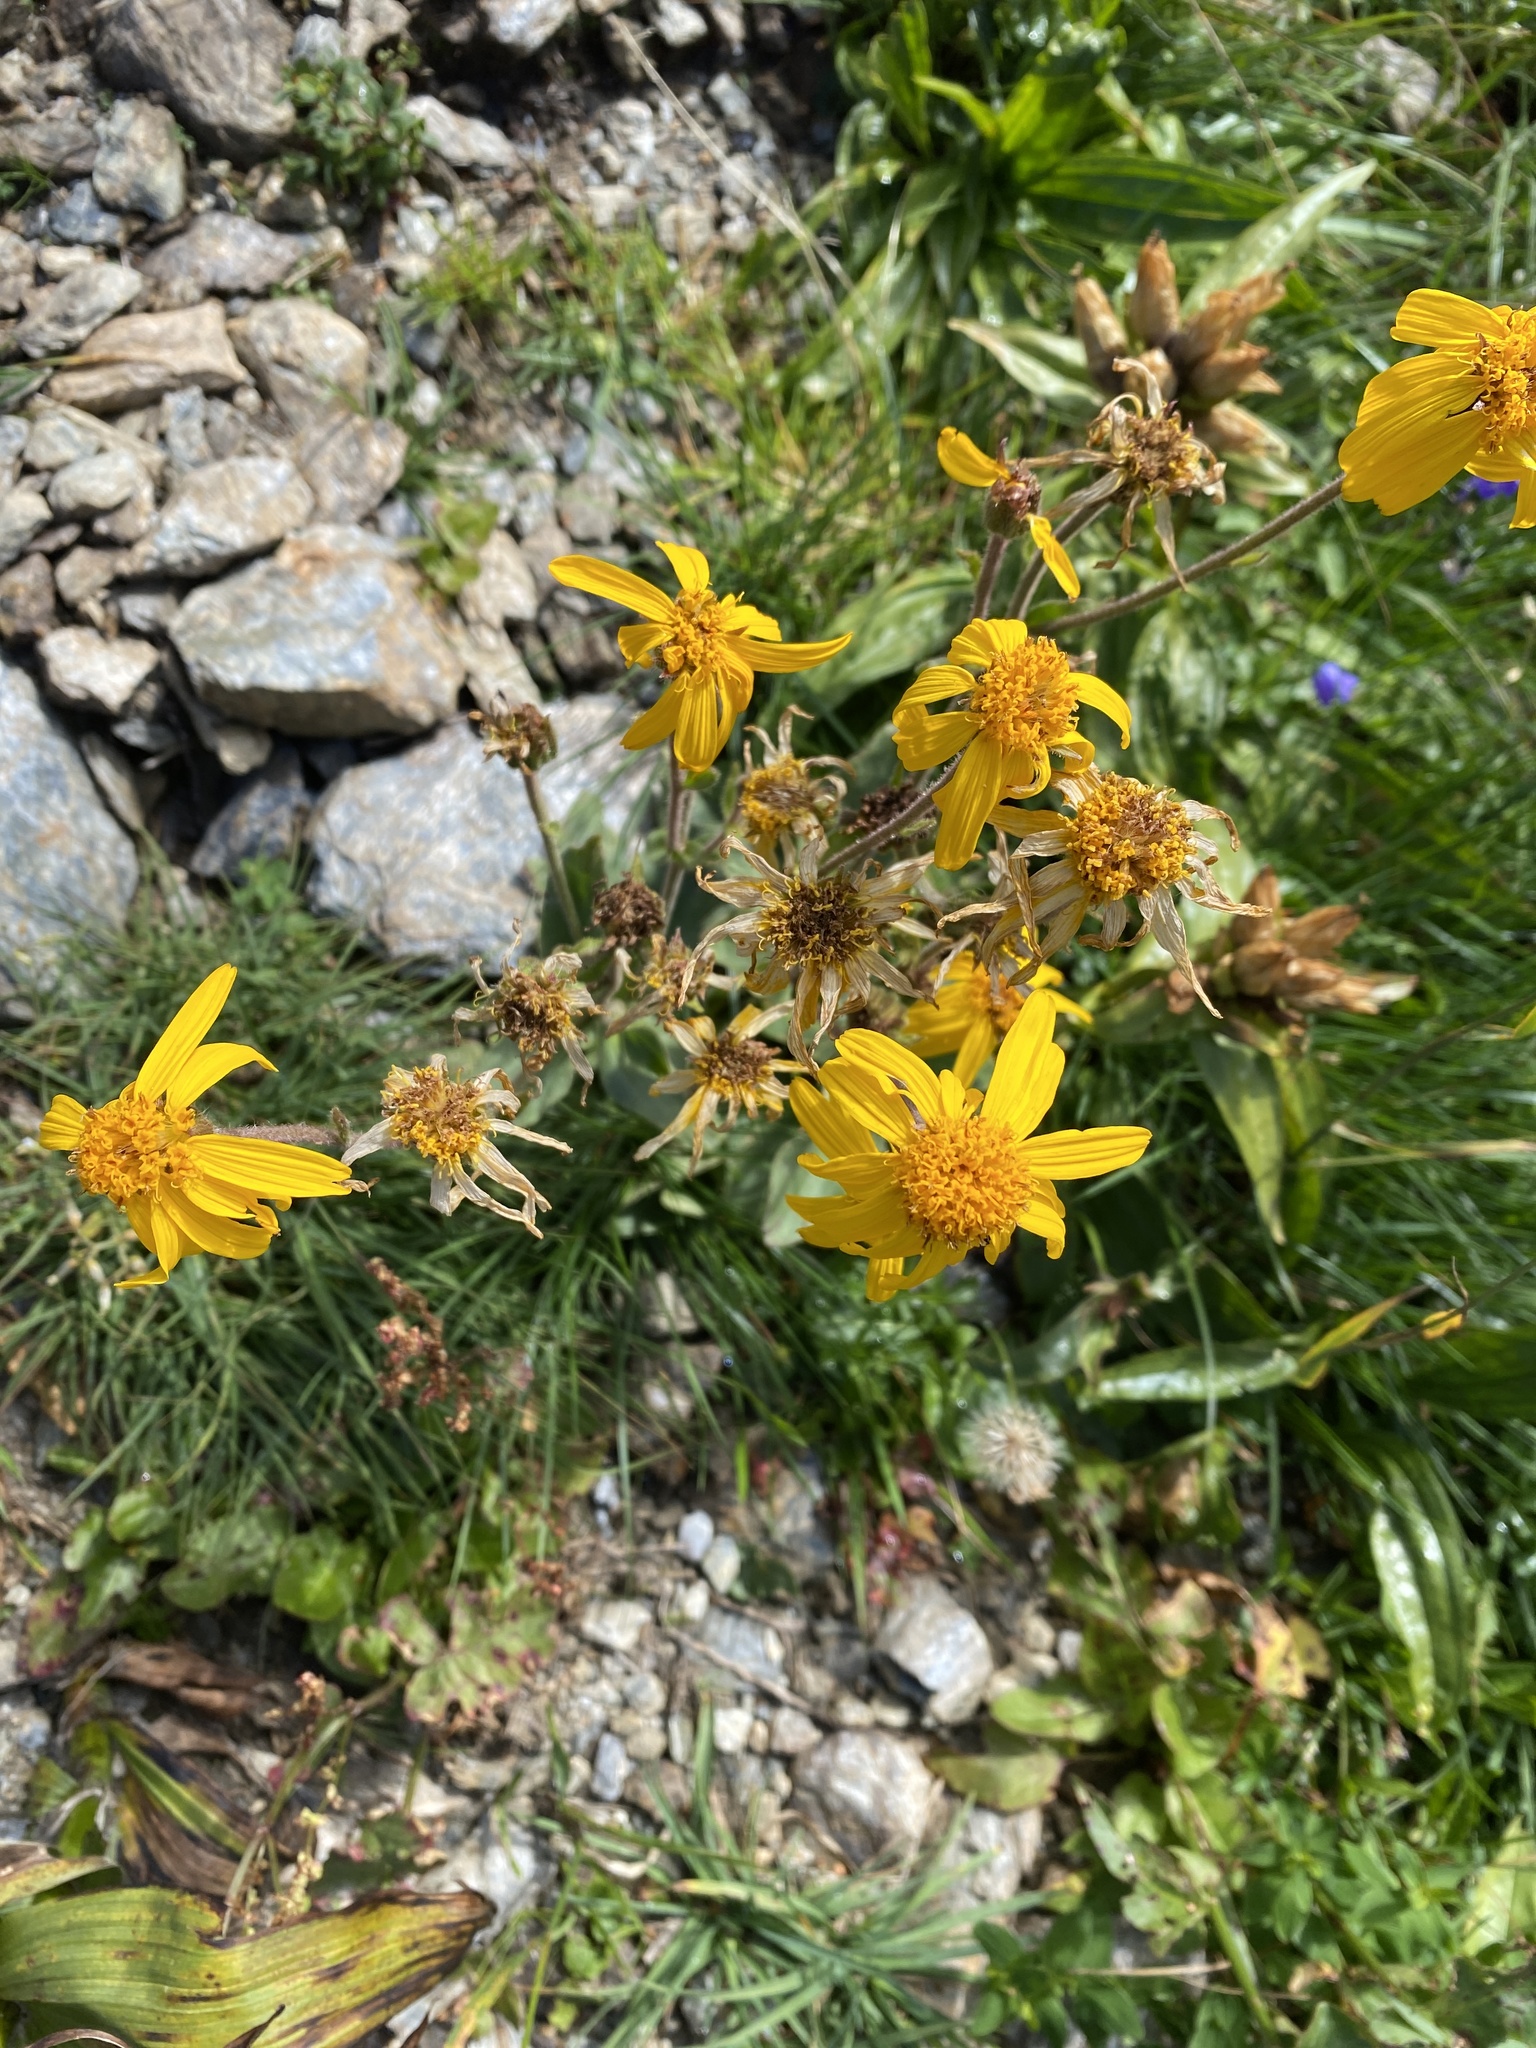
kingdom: Plantae
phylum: Tracheophyta
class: Magnoliopsida
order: Asterales
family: Asteraceae
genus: Arnica
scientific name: Arnica montana
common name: Leopard's bane
